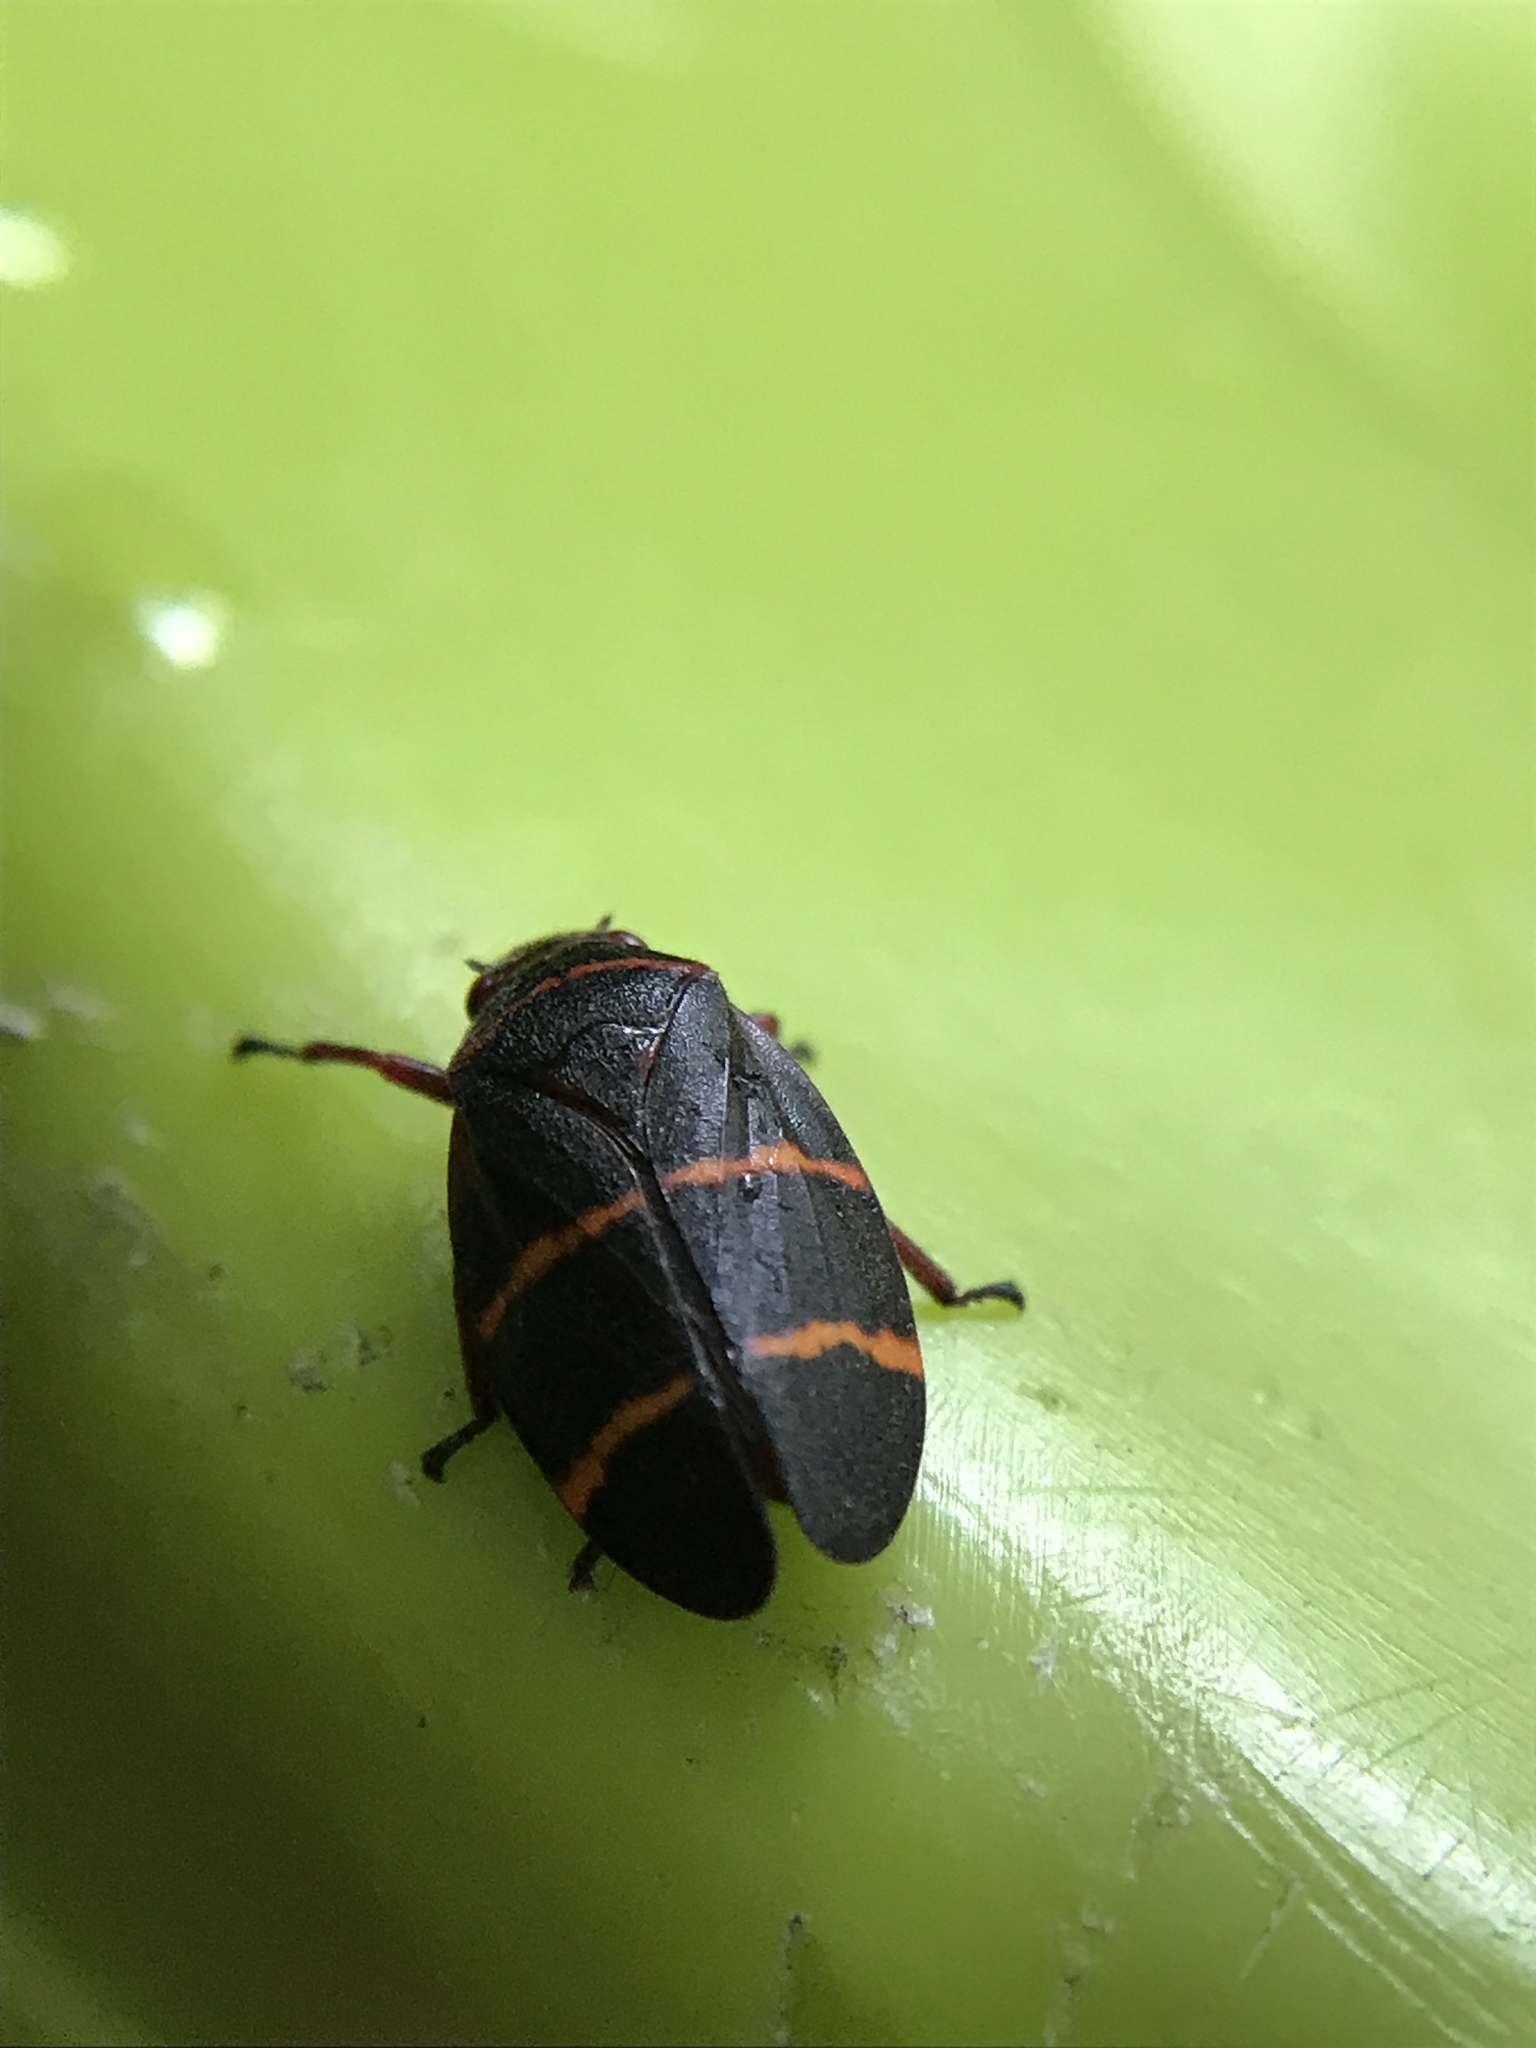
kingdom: Animalia
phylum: Arthropoda
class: Insecta
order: Hemiptera
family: Cercopidae
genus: Prosapia
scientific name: Prosapia bicincta
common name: Twolined spittlebug
